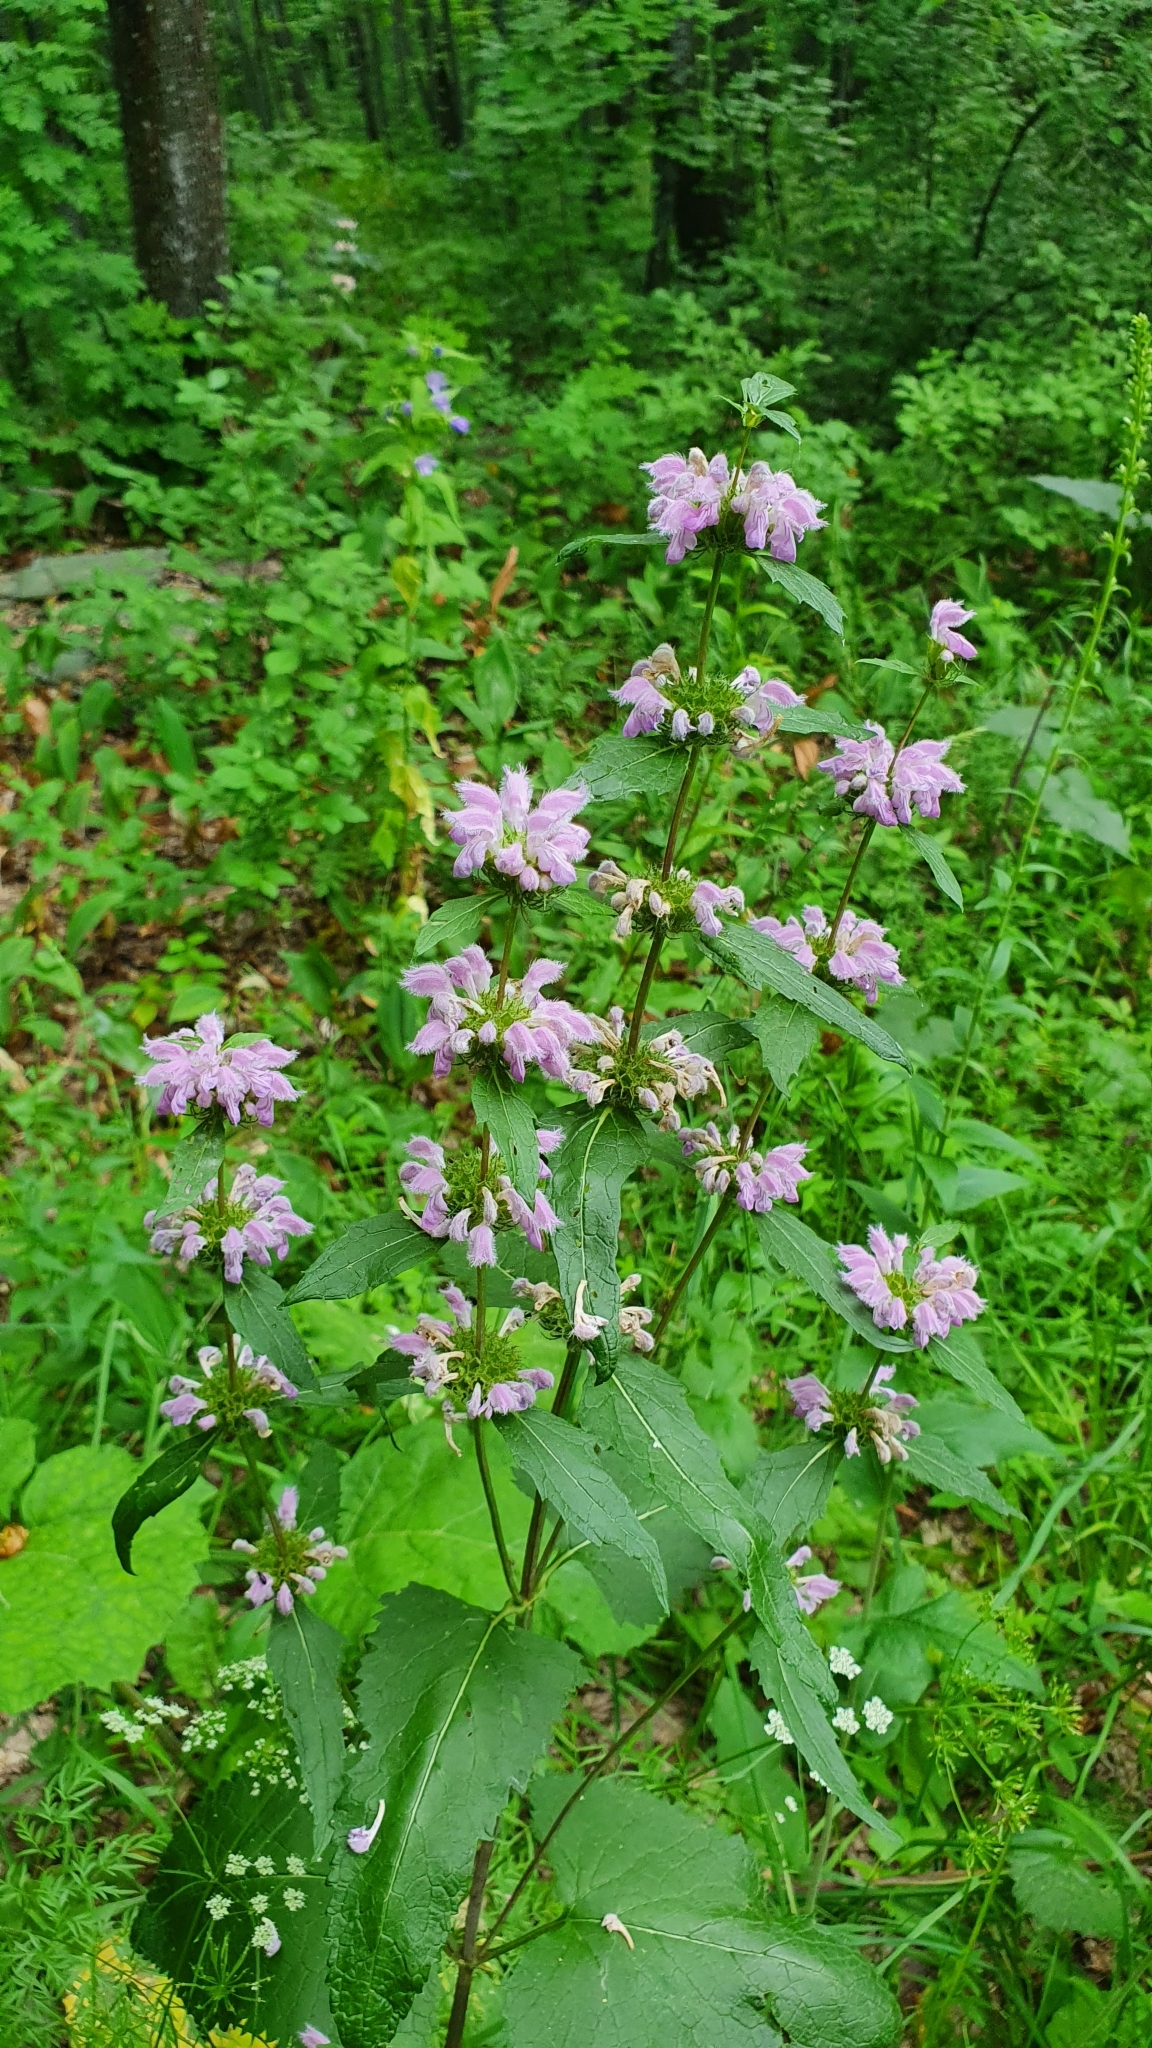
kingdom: Plantae
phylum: Tracheophyta
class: Magnoliopsida
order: Lamiales
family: Lamiaceae
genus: Phlomoides
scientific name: Phlomoides tuberosa
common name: Tuberous jerusalem sage
